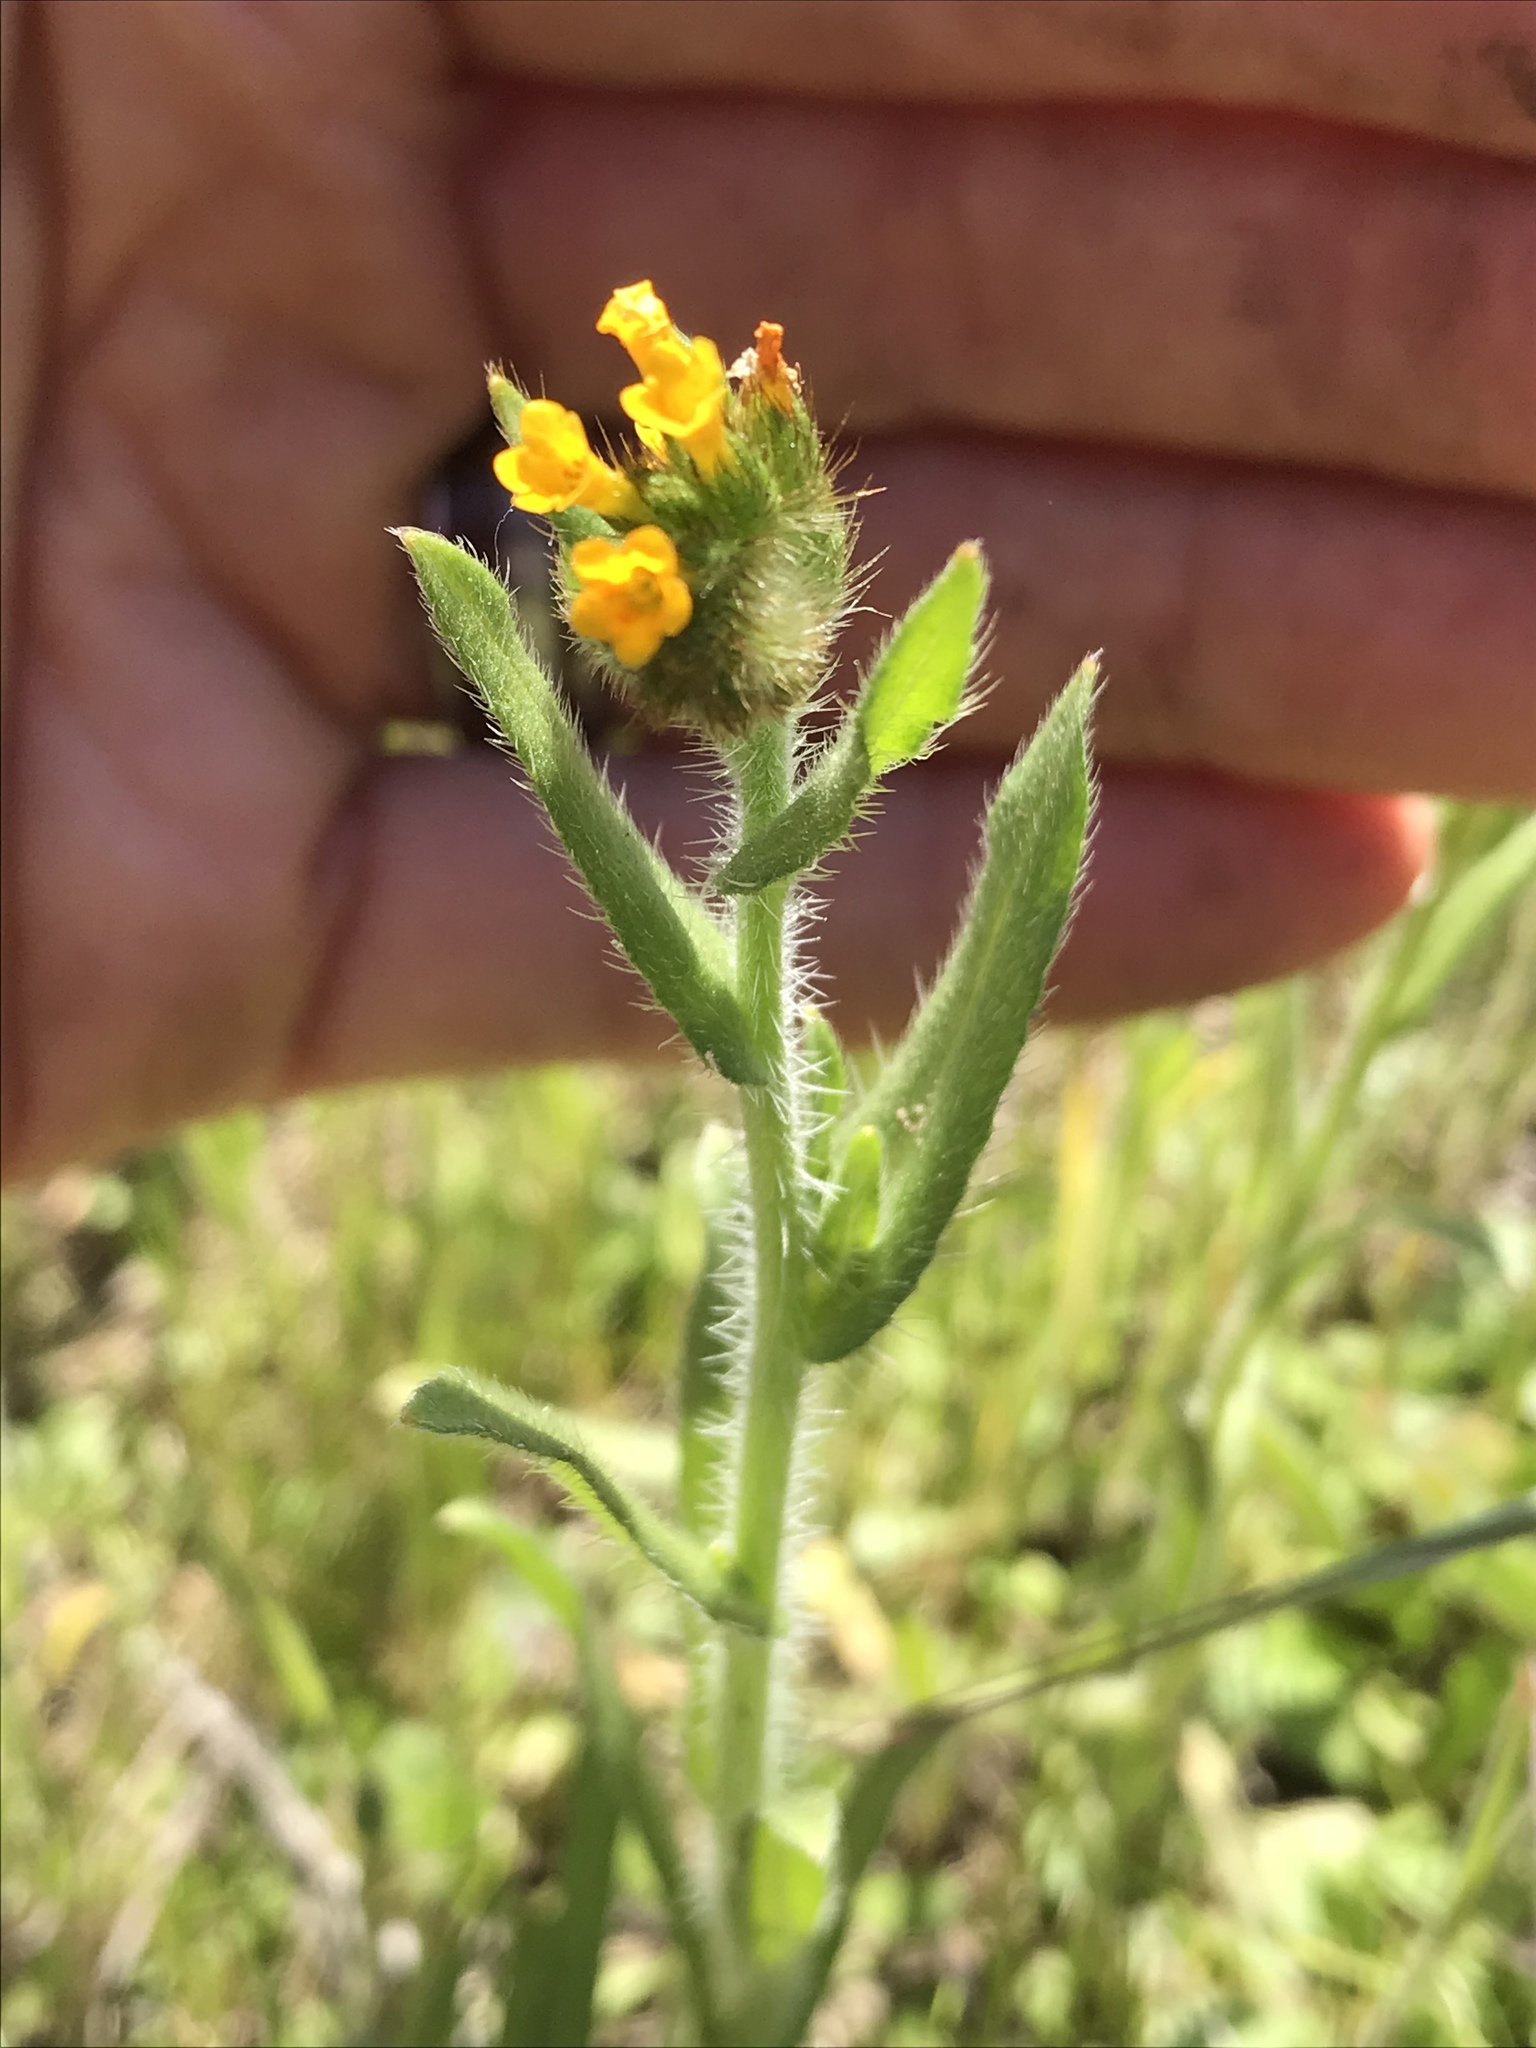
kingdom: Plantae
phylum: Tracheophyta
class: Magnoliopsida
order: Boraginales
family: Boraginaceae
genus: Amsinckia
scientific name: Amsinckia menziesii
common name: Menzies' fiddleneck
